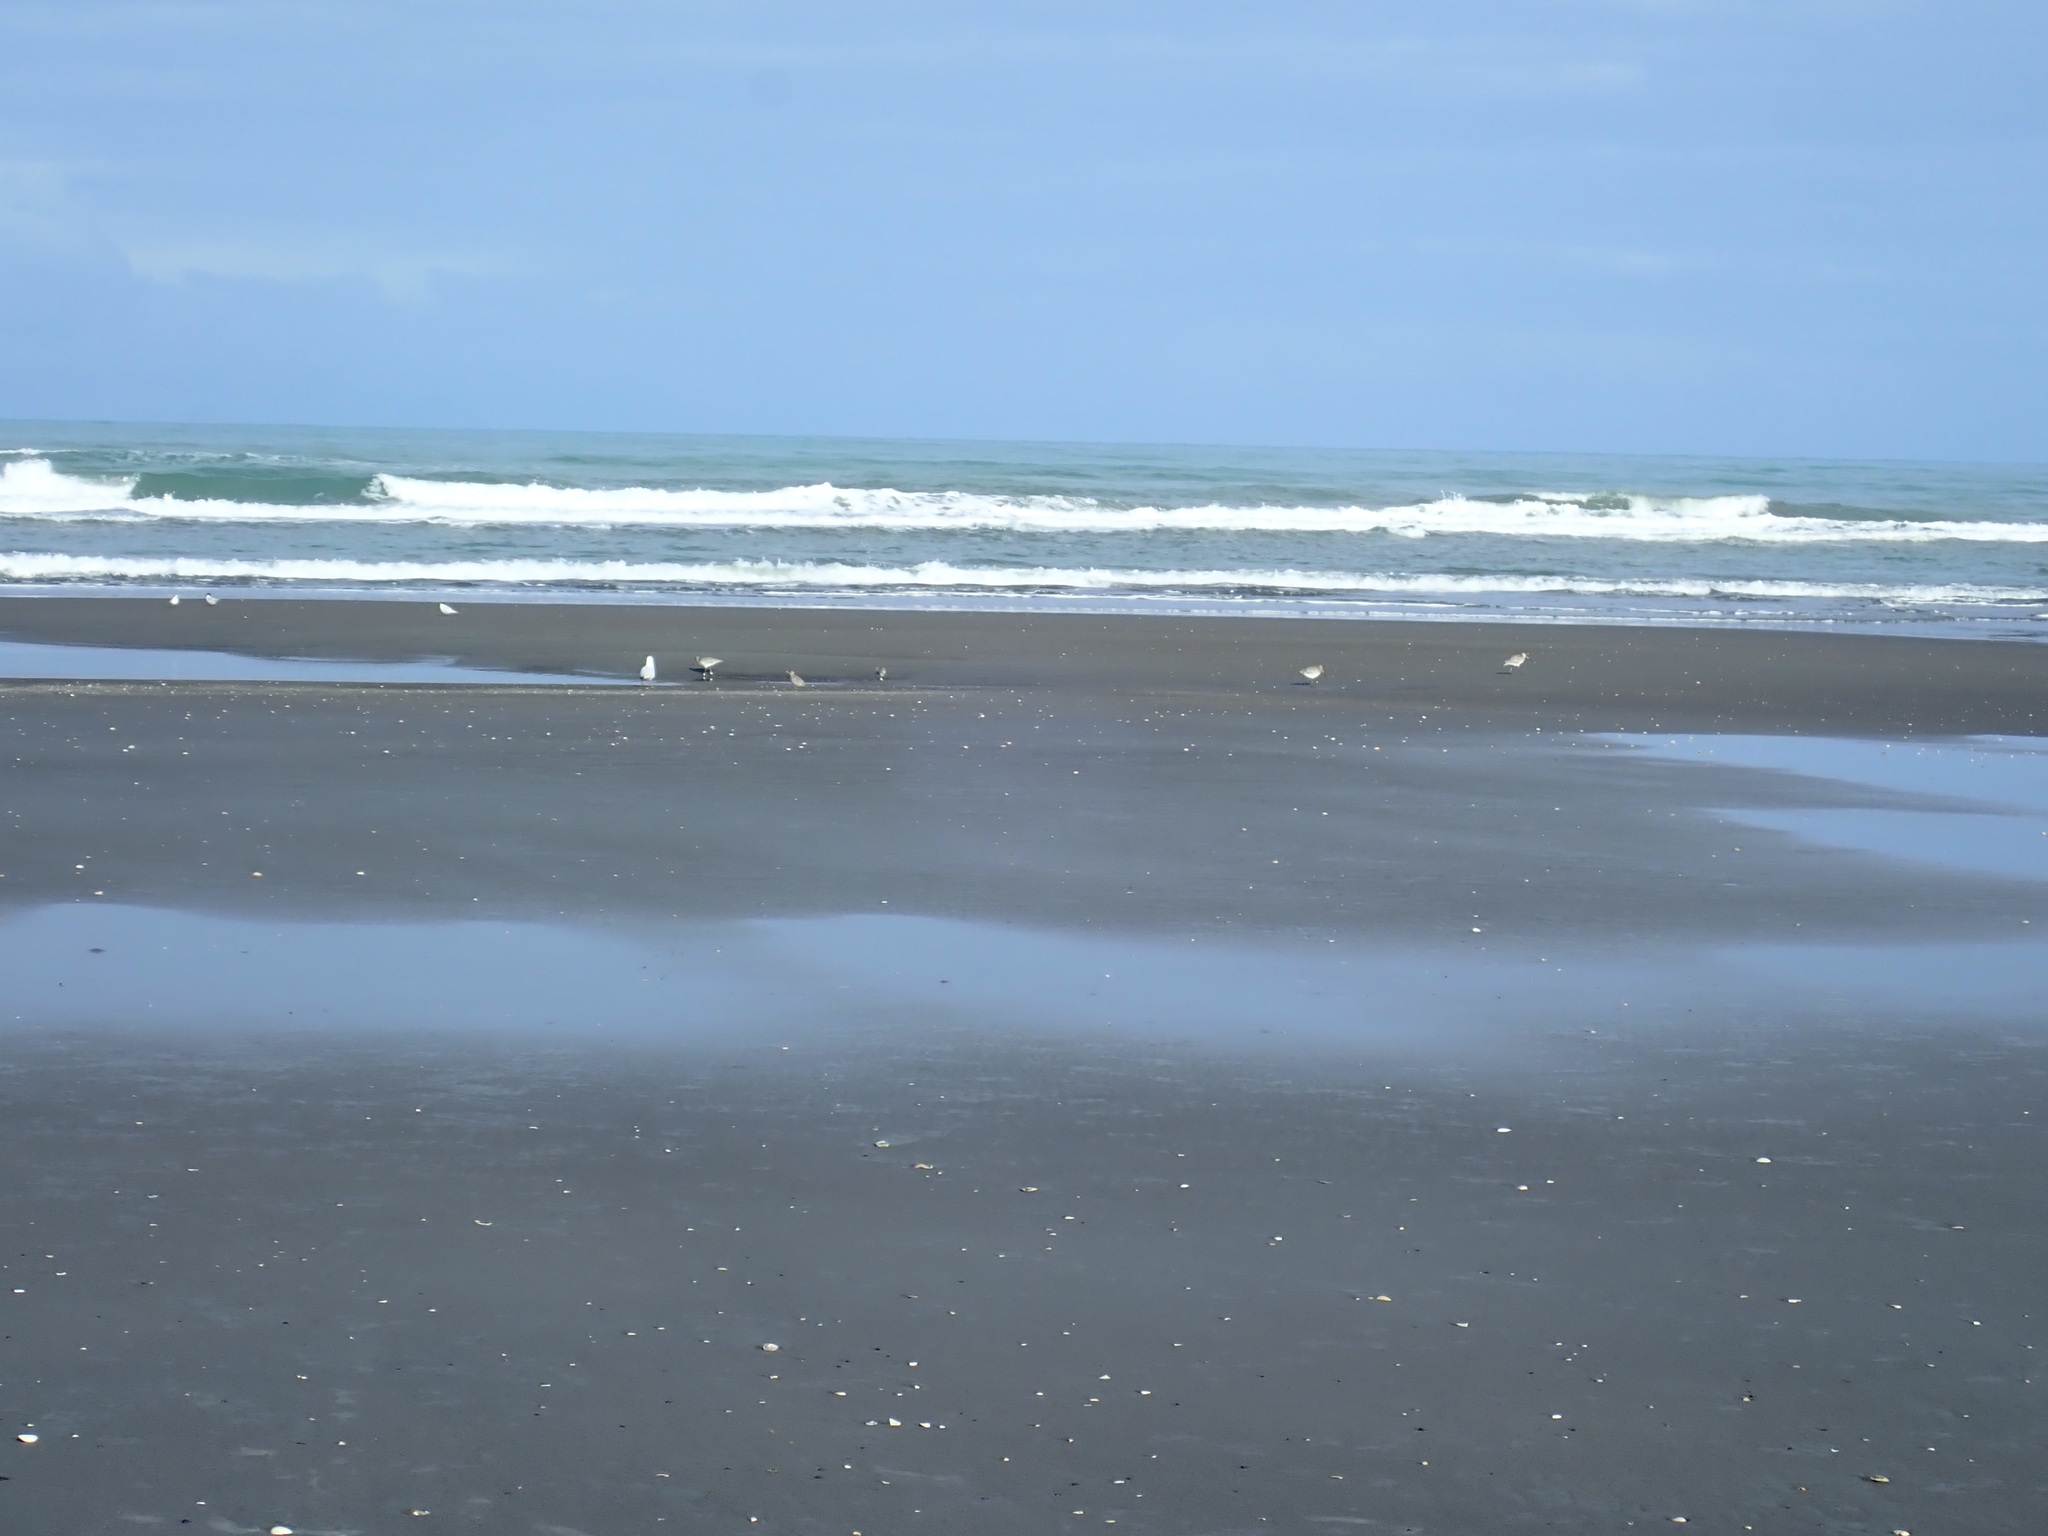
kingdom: Animalia
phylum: Chordata
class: Aves
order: Charadriiformes
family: Scolopacidae
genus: Limosa
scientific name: Limosa lapponica
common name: Bar-tailed godwit
